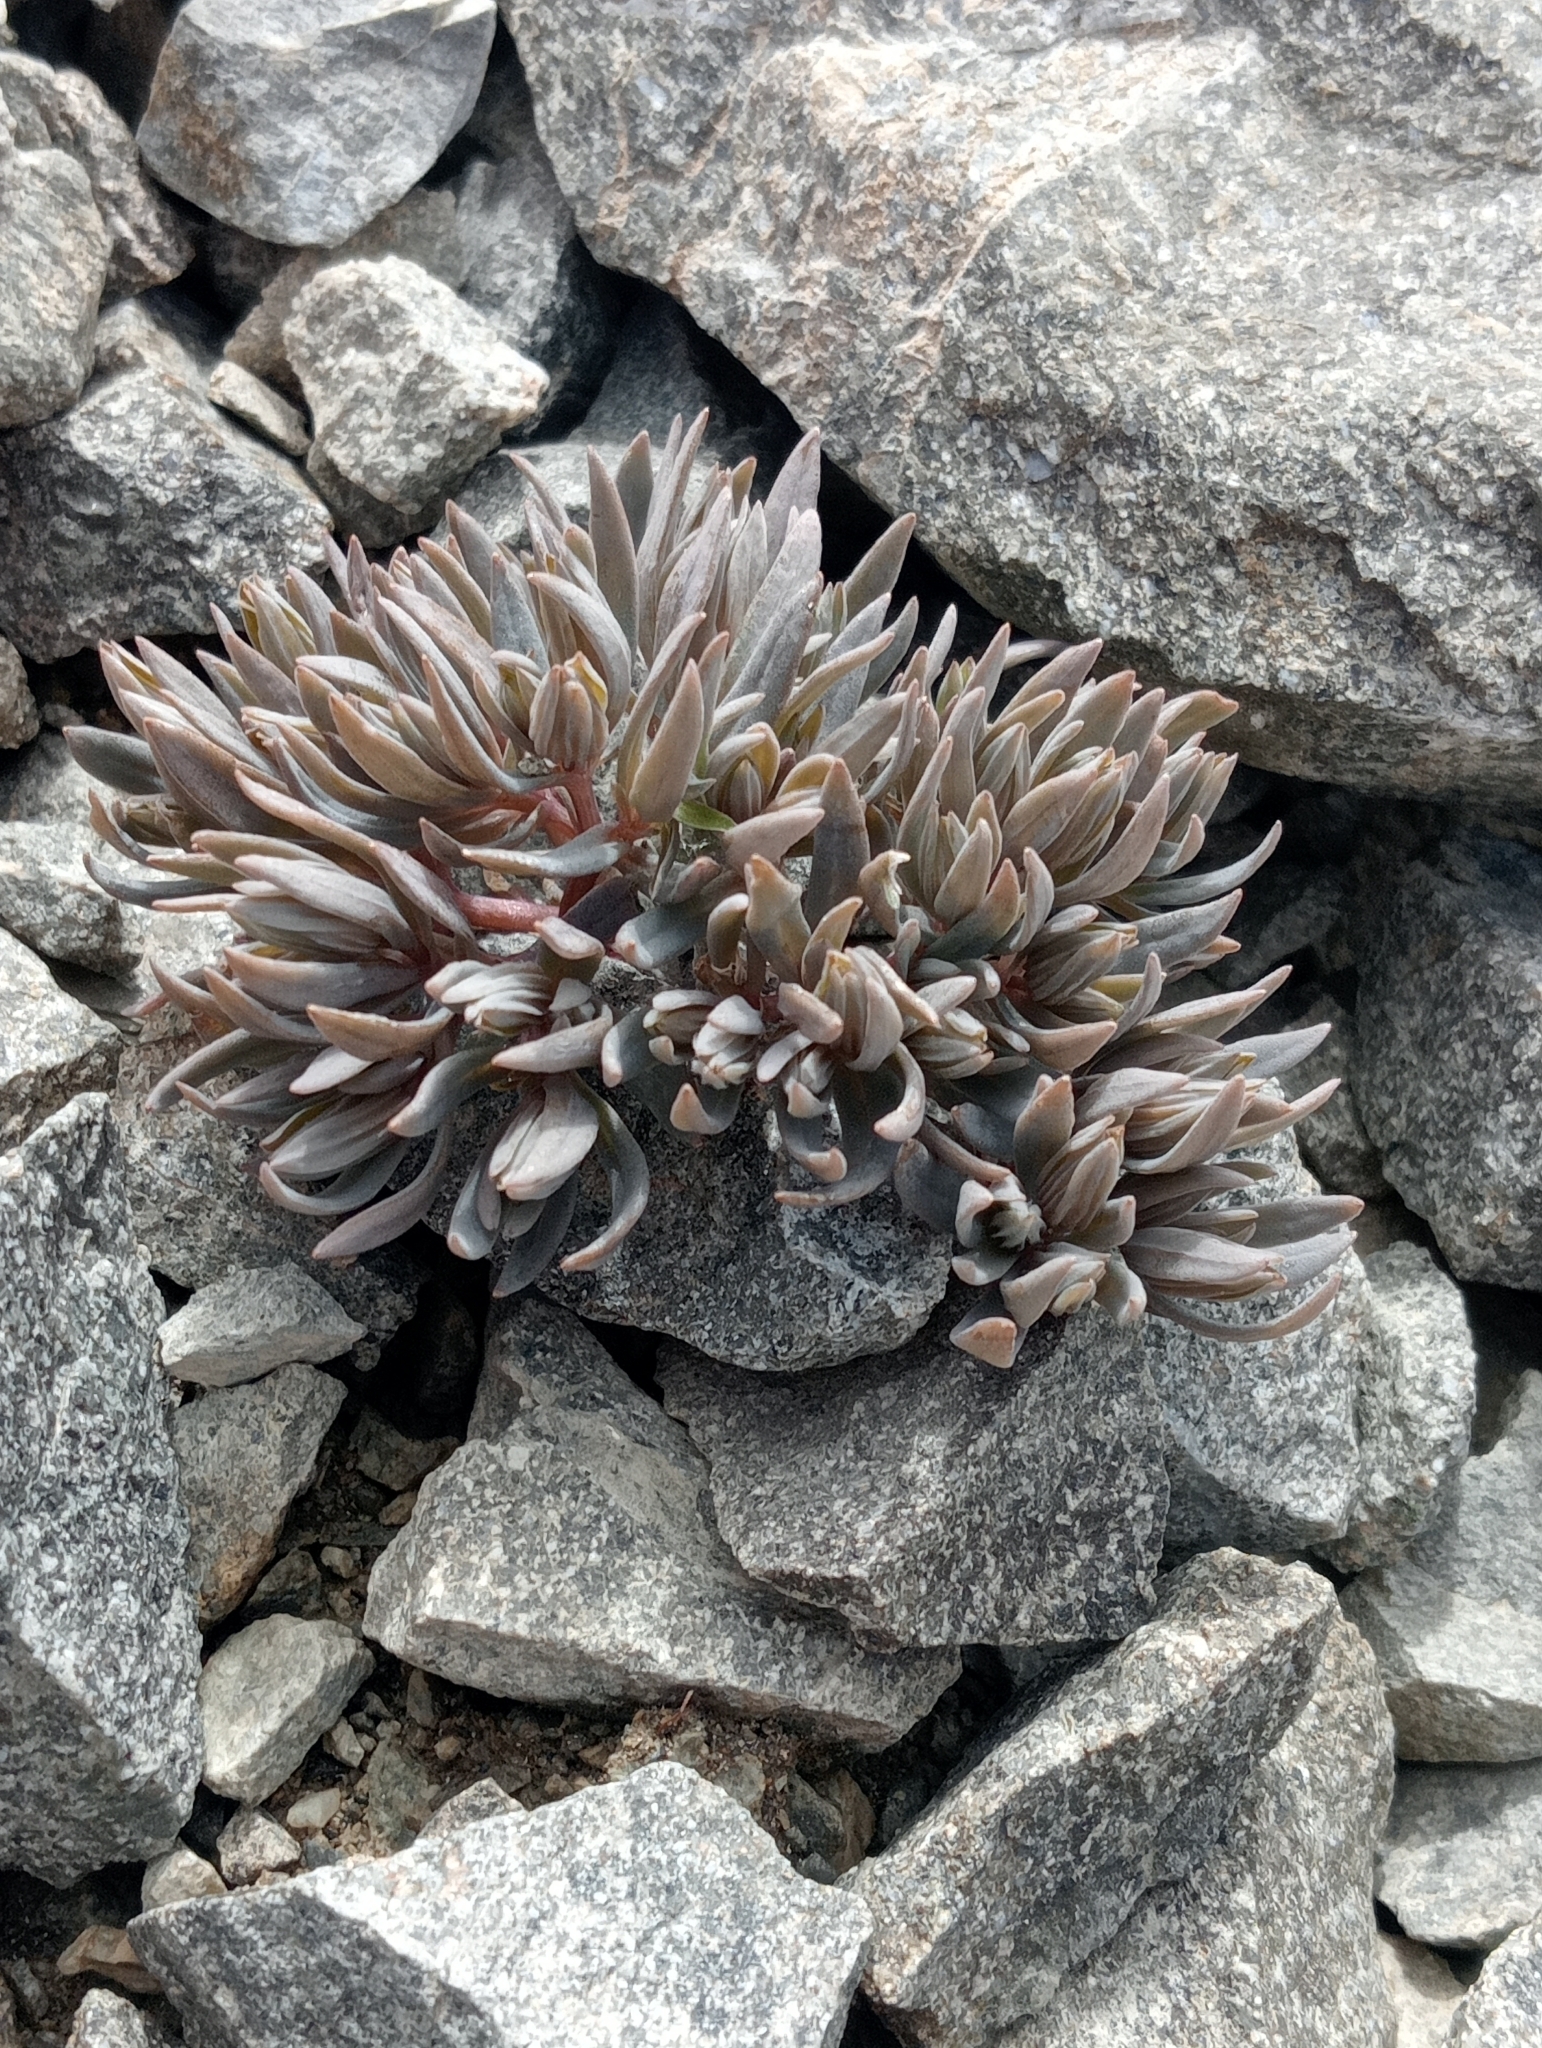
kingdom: Plantae
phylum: Tracheophyta
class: Magnoliopsida
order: Caryophyllales
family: Caryophyllaceae
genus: Stellaria
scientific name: Stellaria roughii
